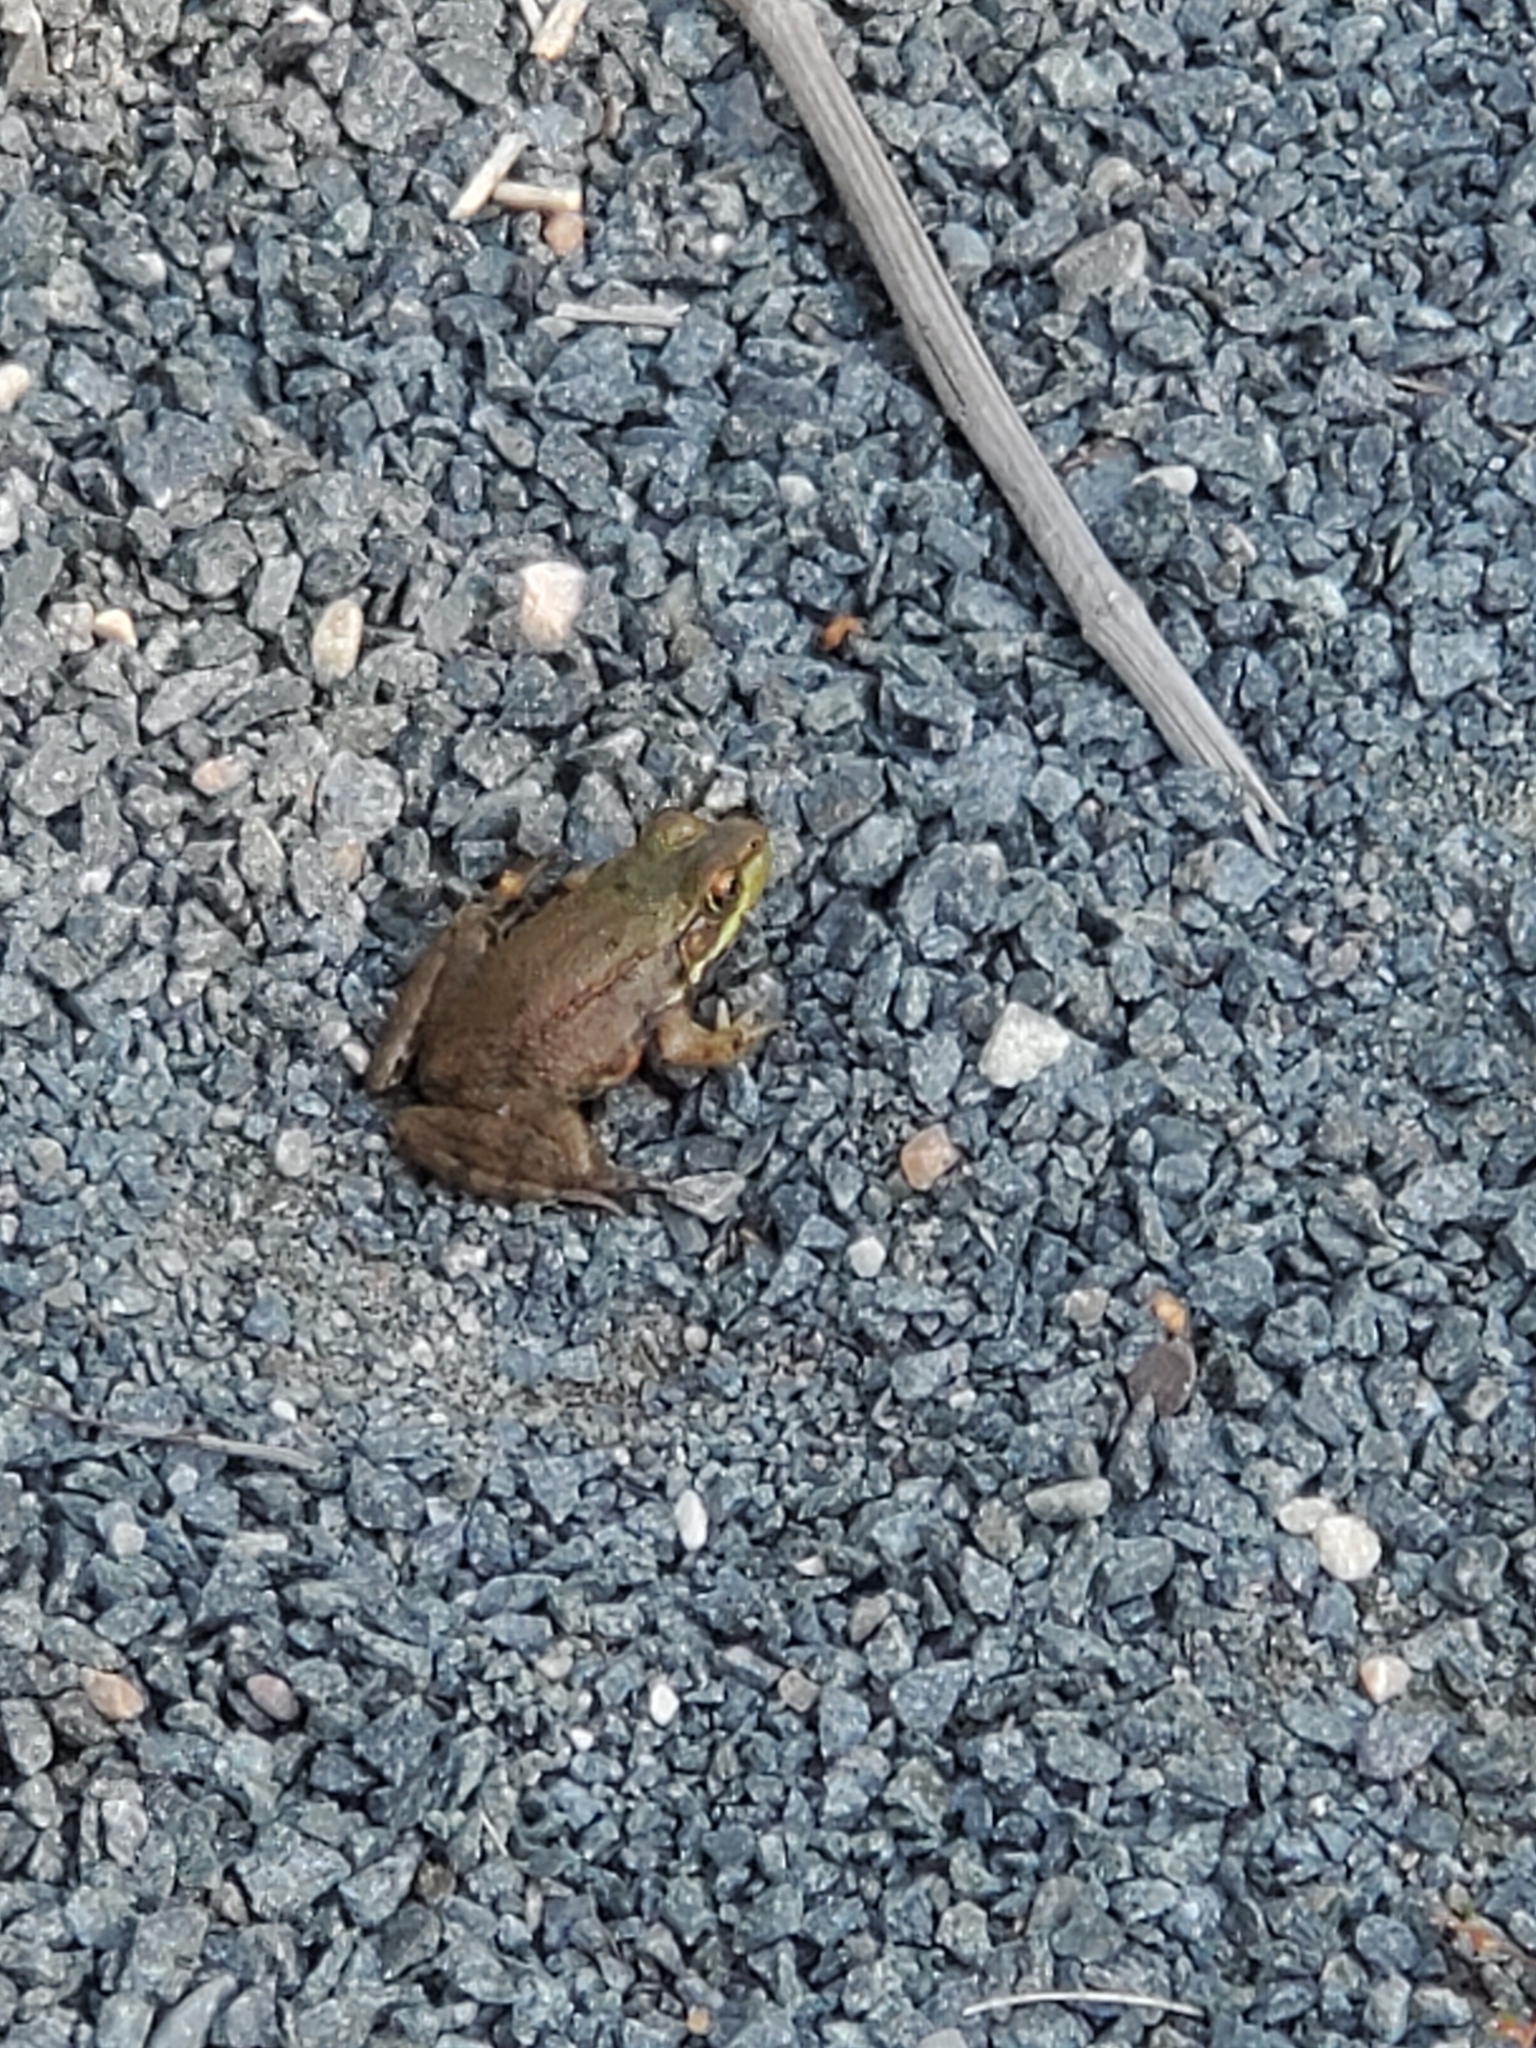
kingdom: Animalia
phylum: Chordata
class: Amphibia
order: Anura
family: Ranidae
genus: Lithobates
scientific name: Lithobates clamitans
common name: Green frog
